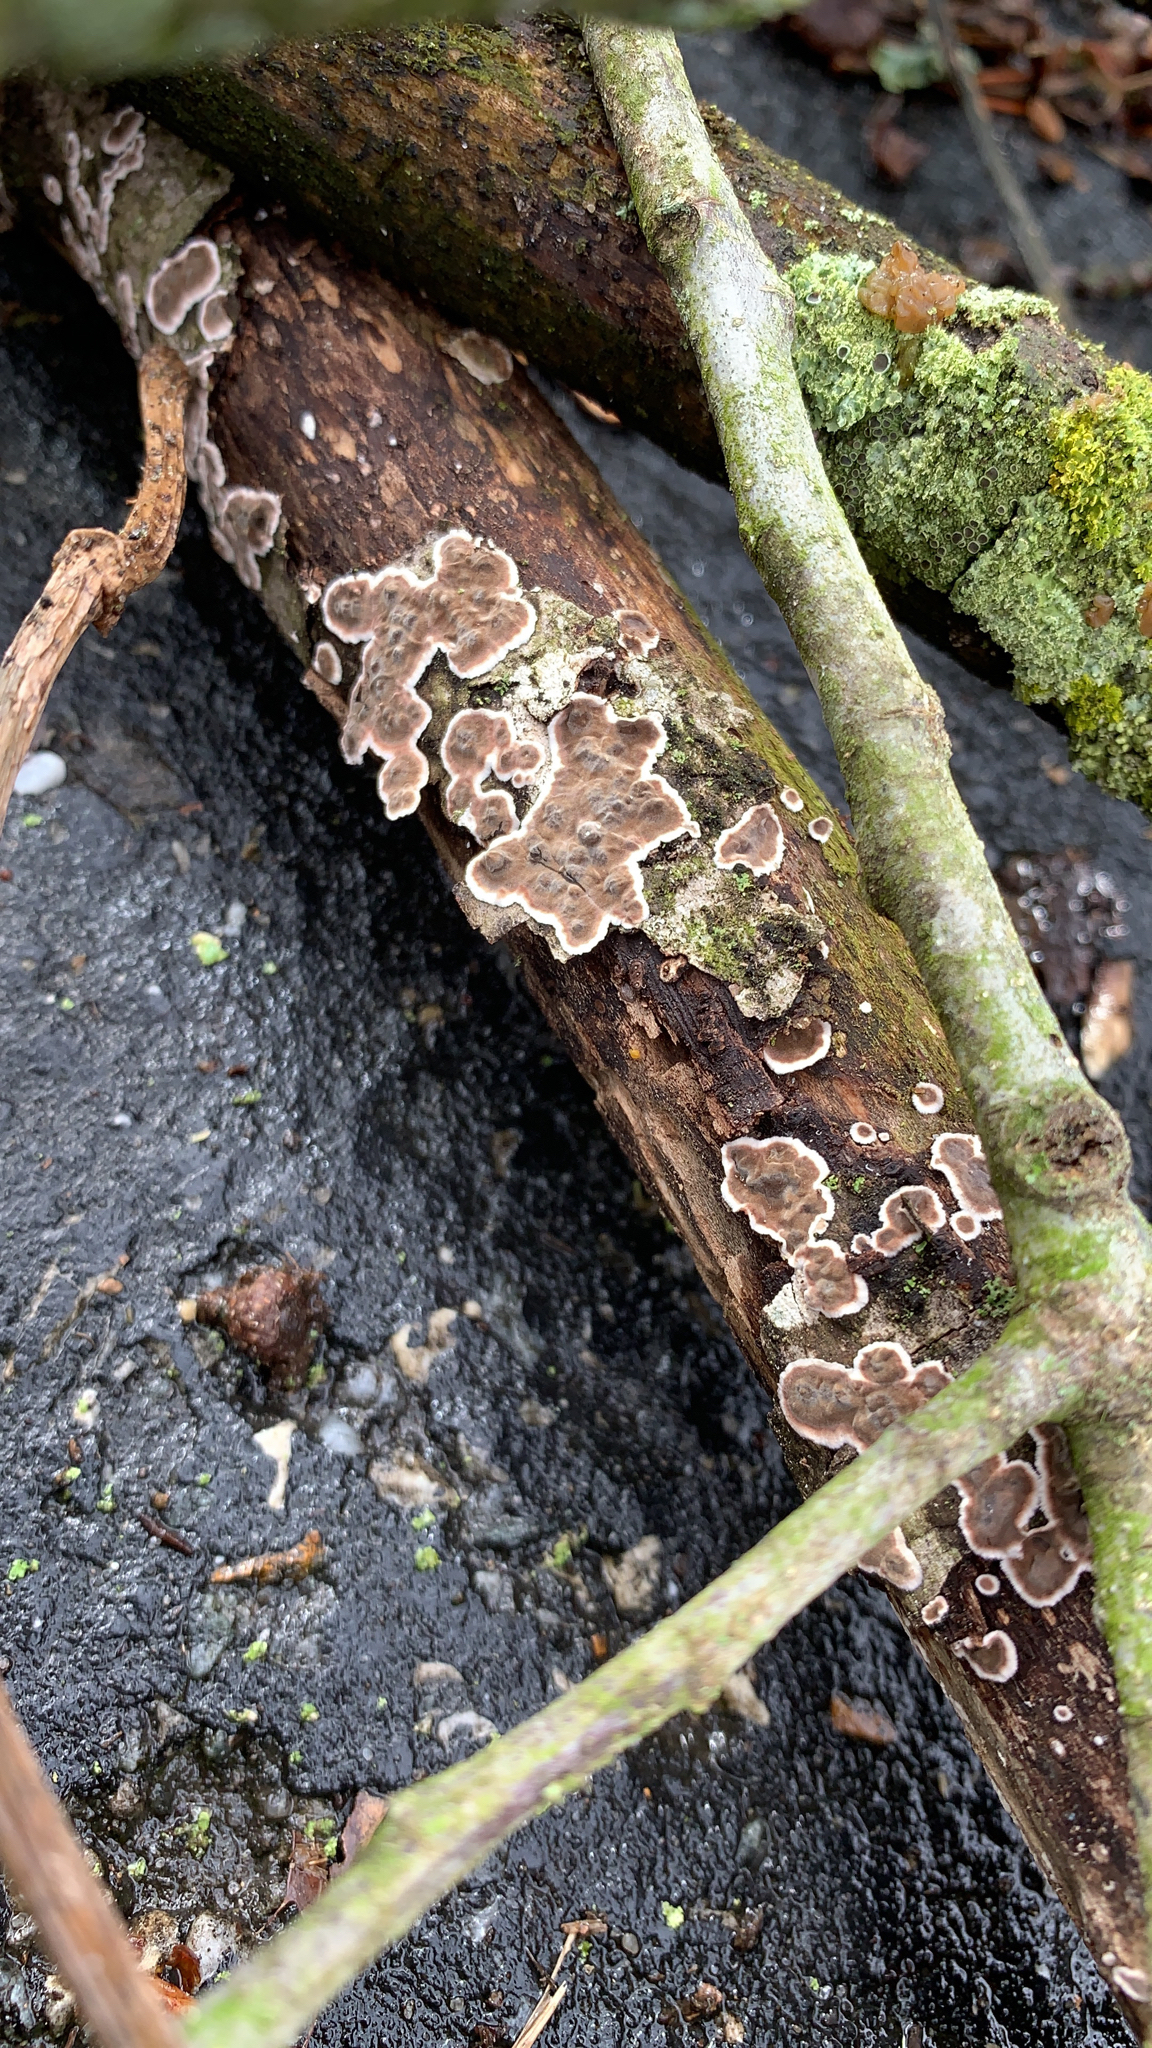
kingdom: Fungi
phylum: Basidiomycota
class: Agaricomycetes
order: Russulales
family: Peniophoraceae
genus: Peniophora
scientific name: Peniophora albobadia
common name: Giraffe spots
